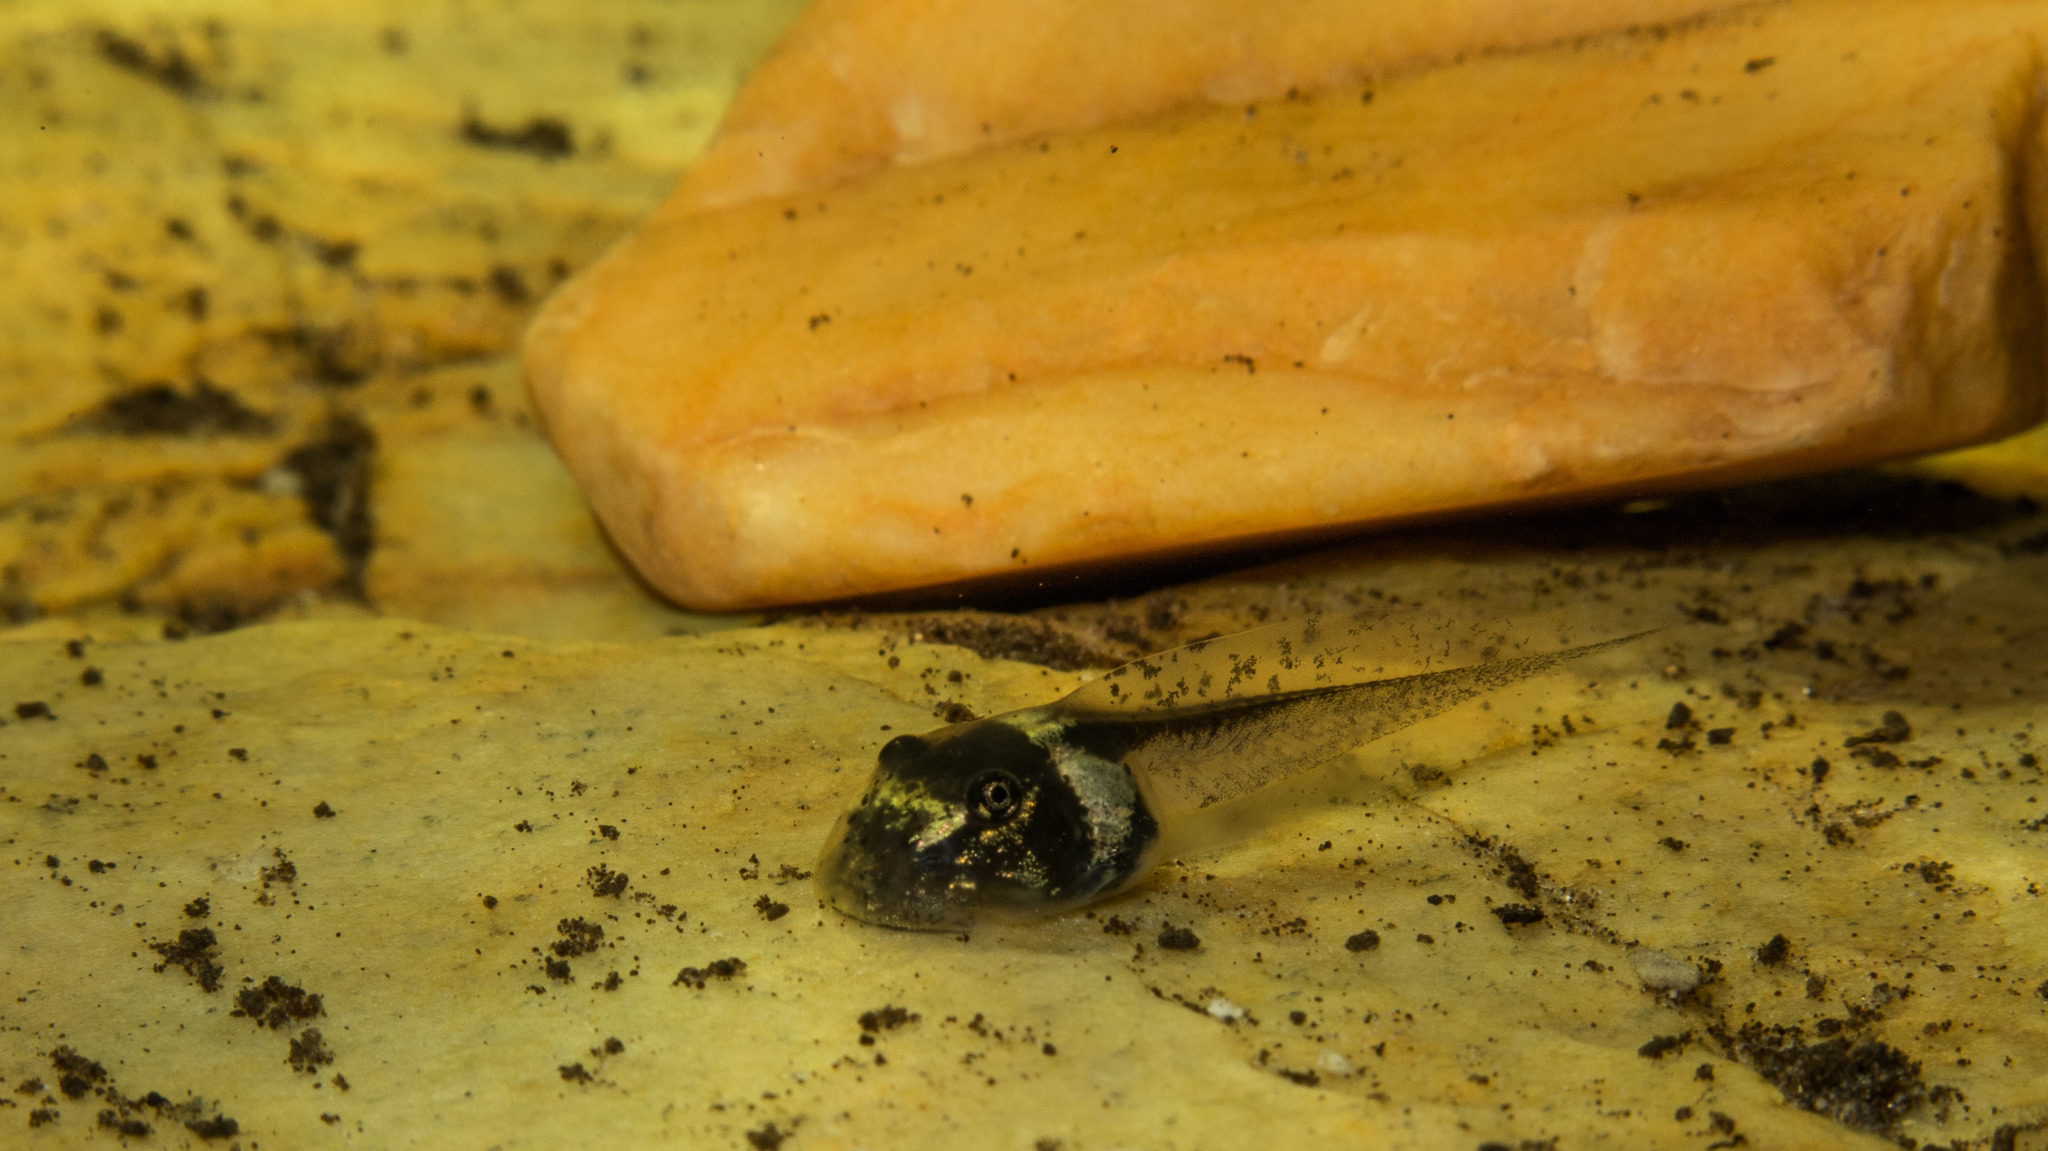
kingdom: Animalia
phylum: Chordata
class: Amphibia
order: Anura
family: Hylidae
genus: Ololygon
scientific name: Ololygon machadoi
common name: Machado's snouted treefrog
